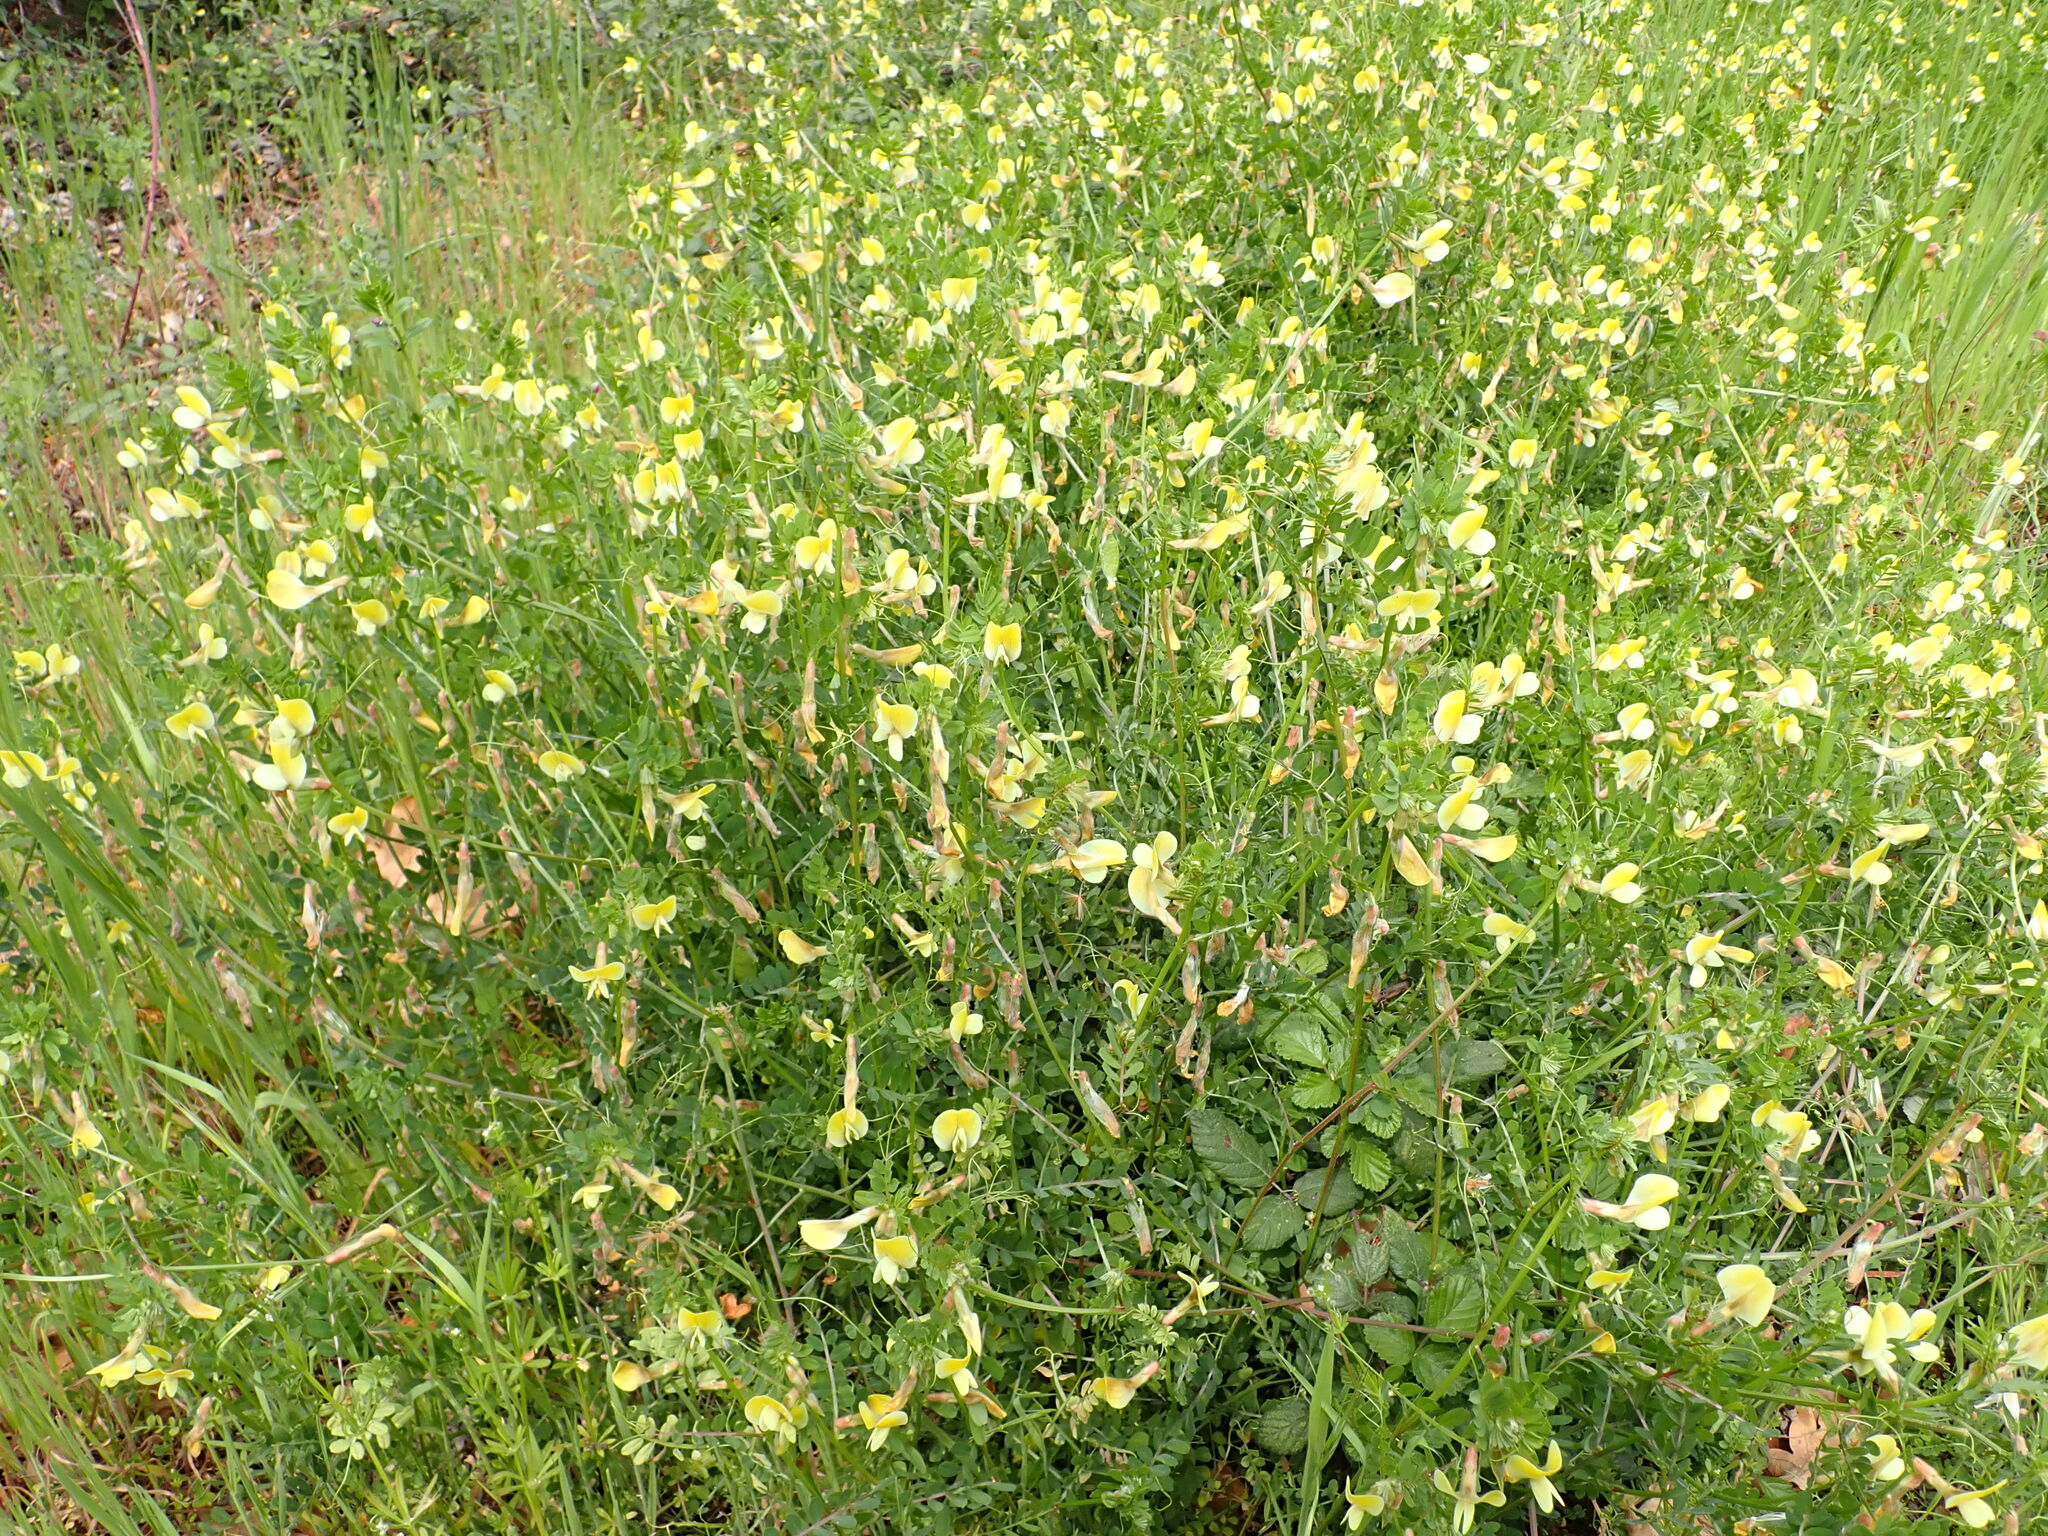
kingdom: Plantae
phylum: Tracheophyta
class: Magnoliopsida
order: Fabales
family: Fabaceae
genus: Vicia
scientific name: Vicia hybrida
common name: Hairy yellow vetch
